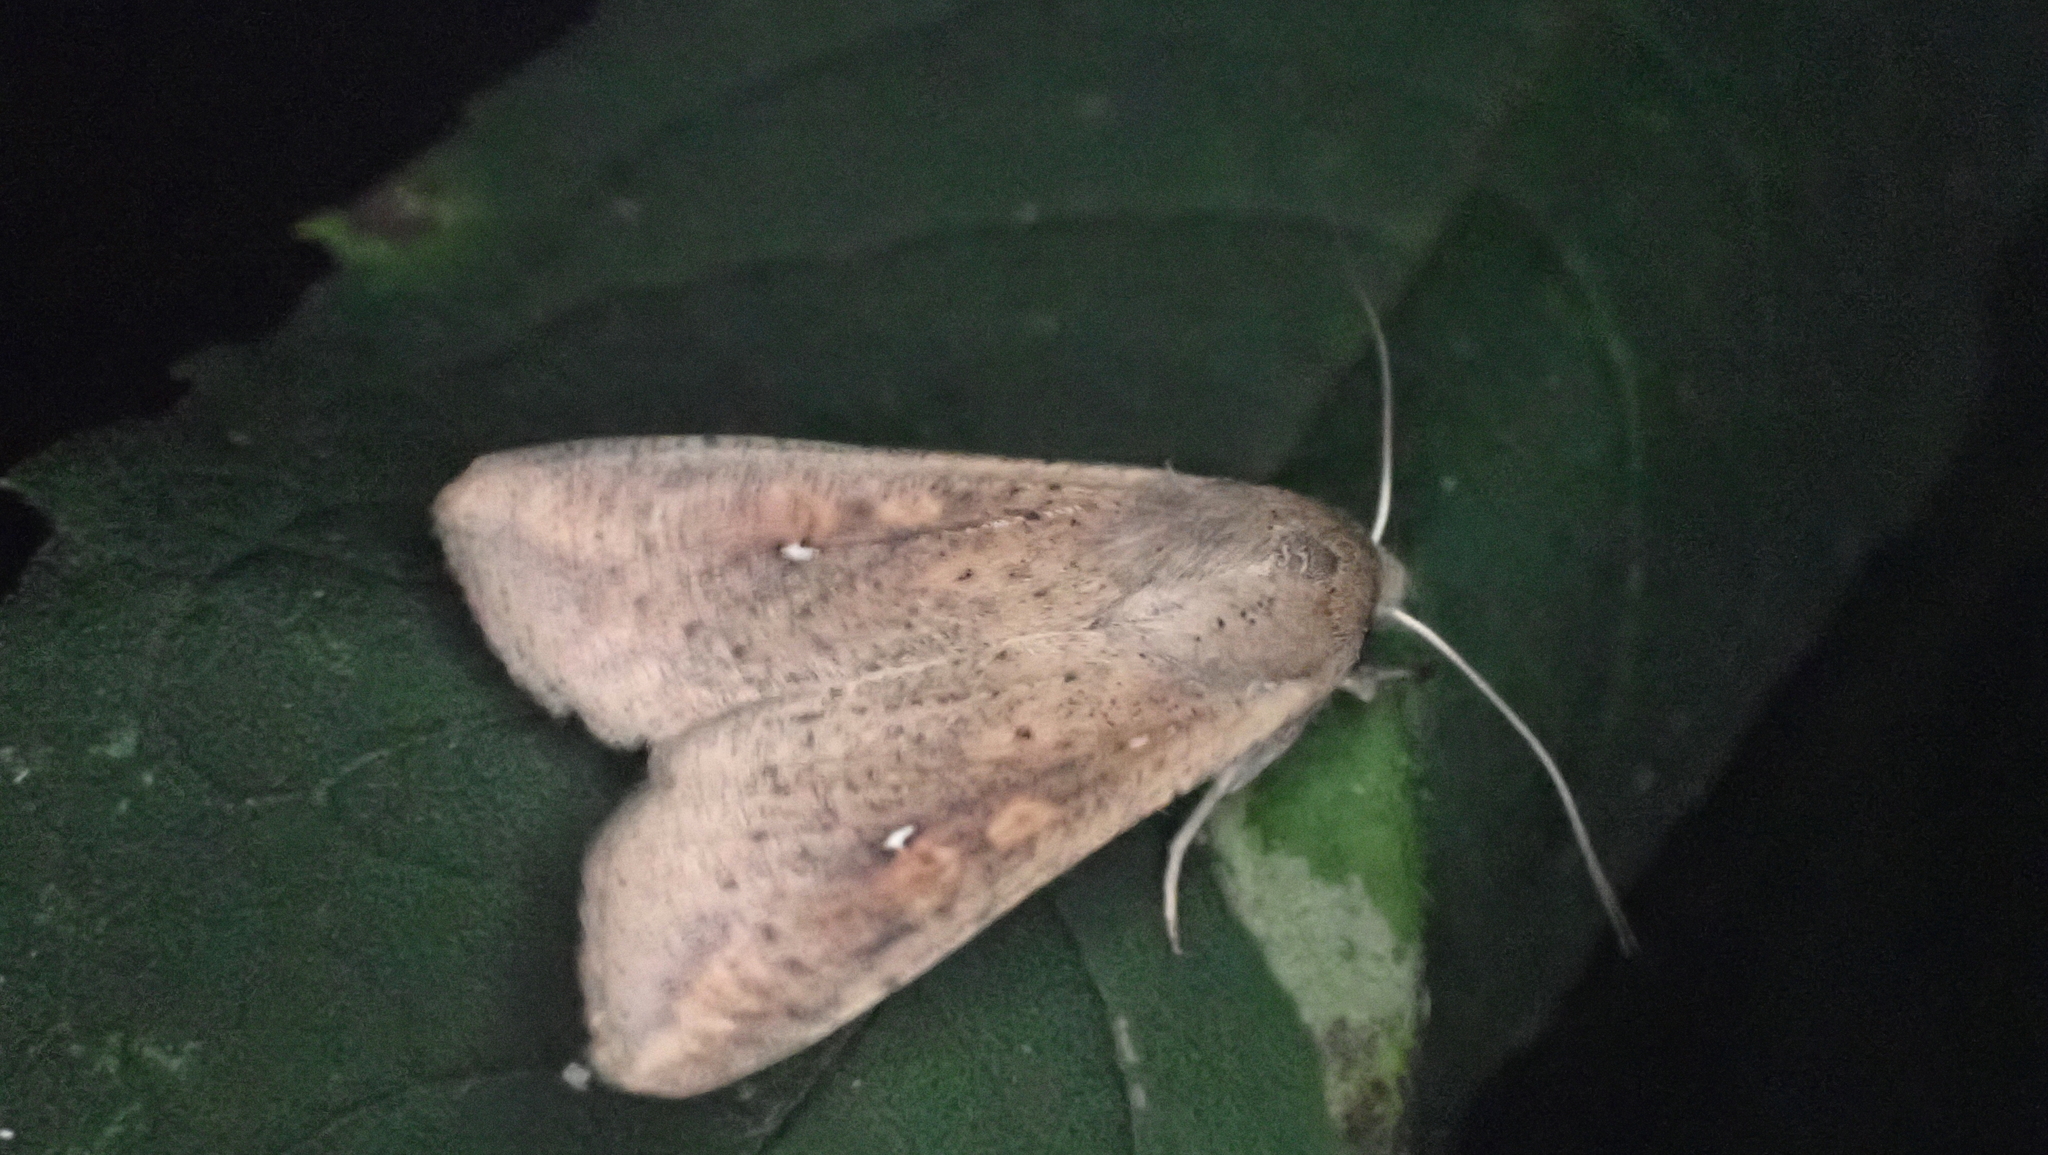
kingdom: Animalia
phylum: Arthropoda
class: Insecta
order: Lepidoptera
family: Noctuidae
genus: Mythimna
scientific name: Mythimna unipuncta
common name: White-speck
